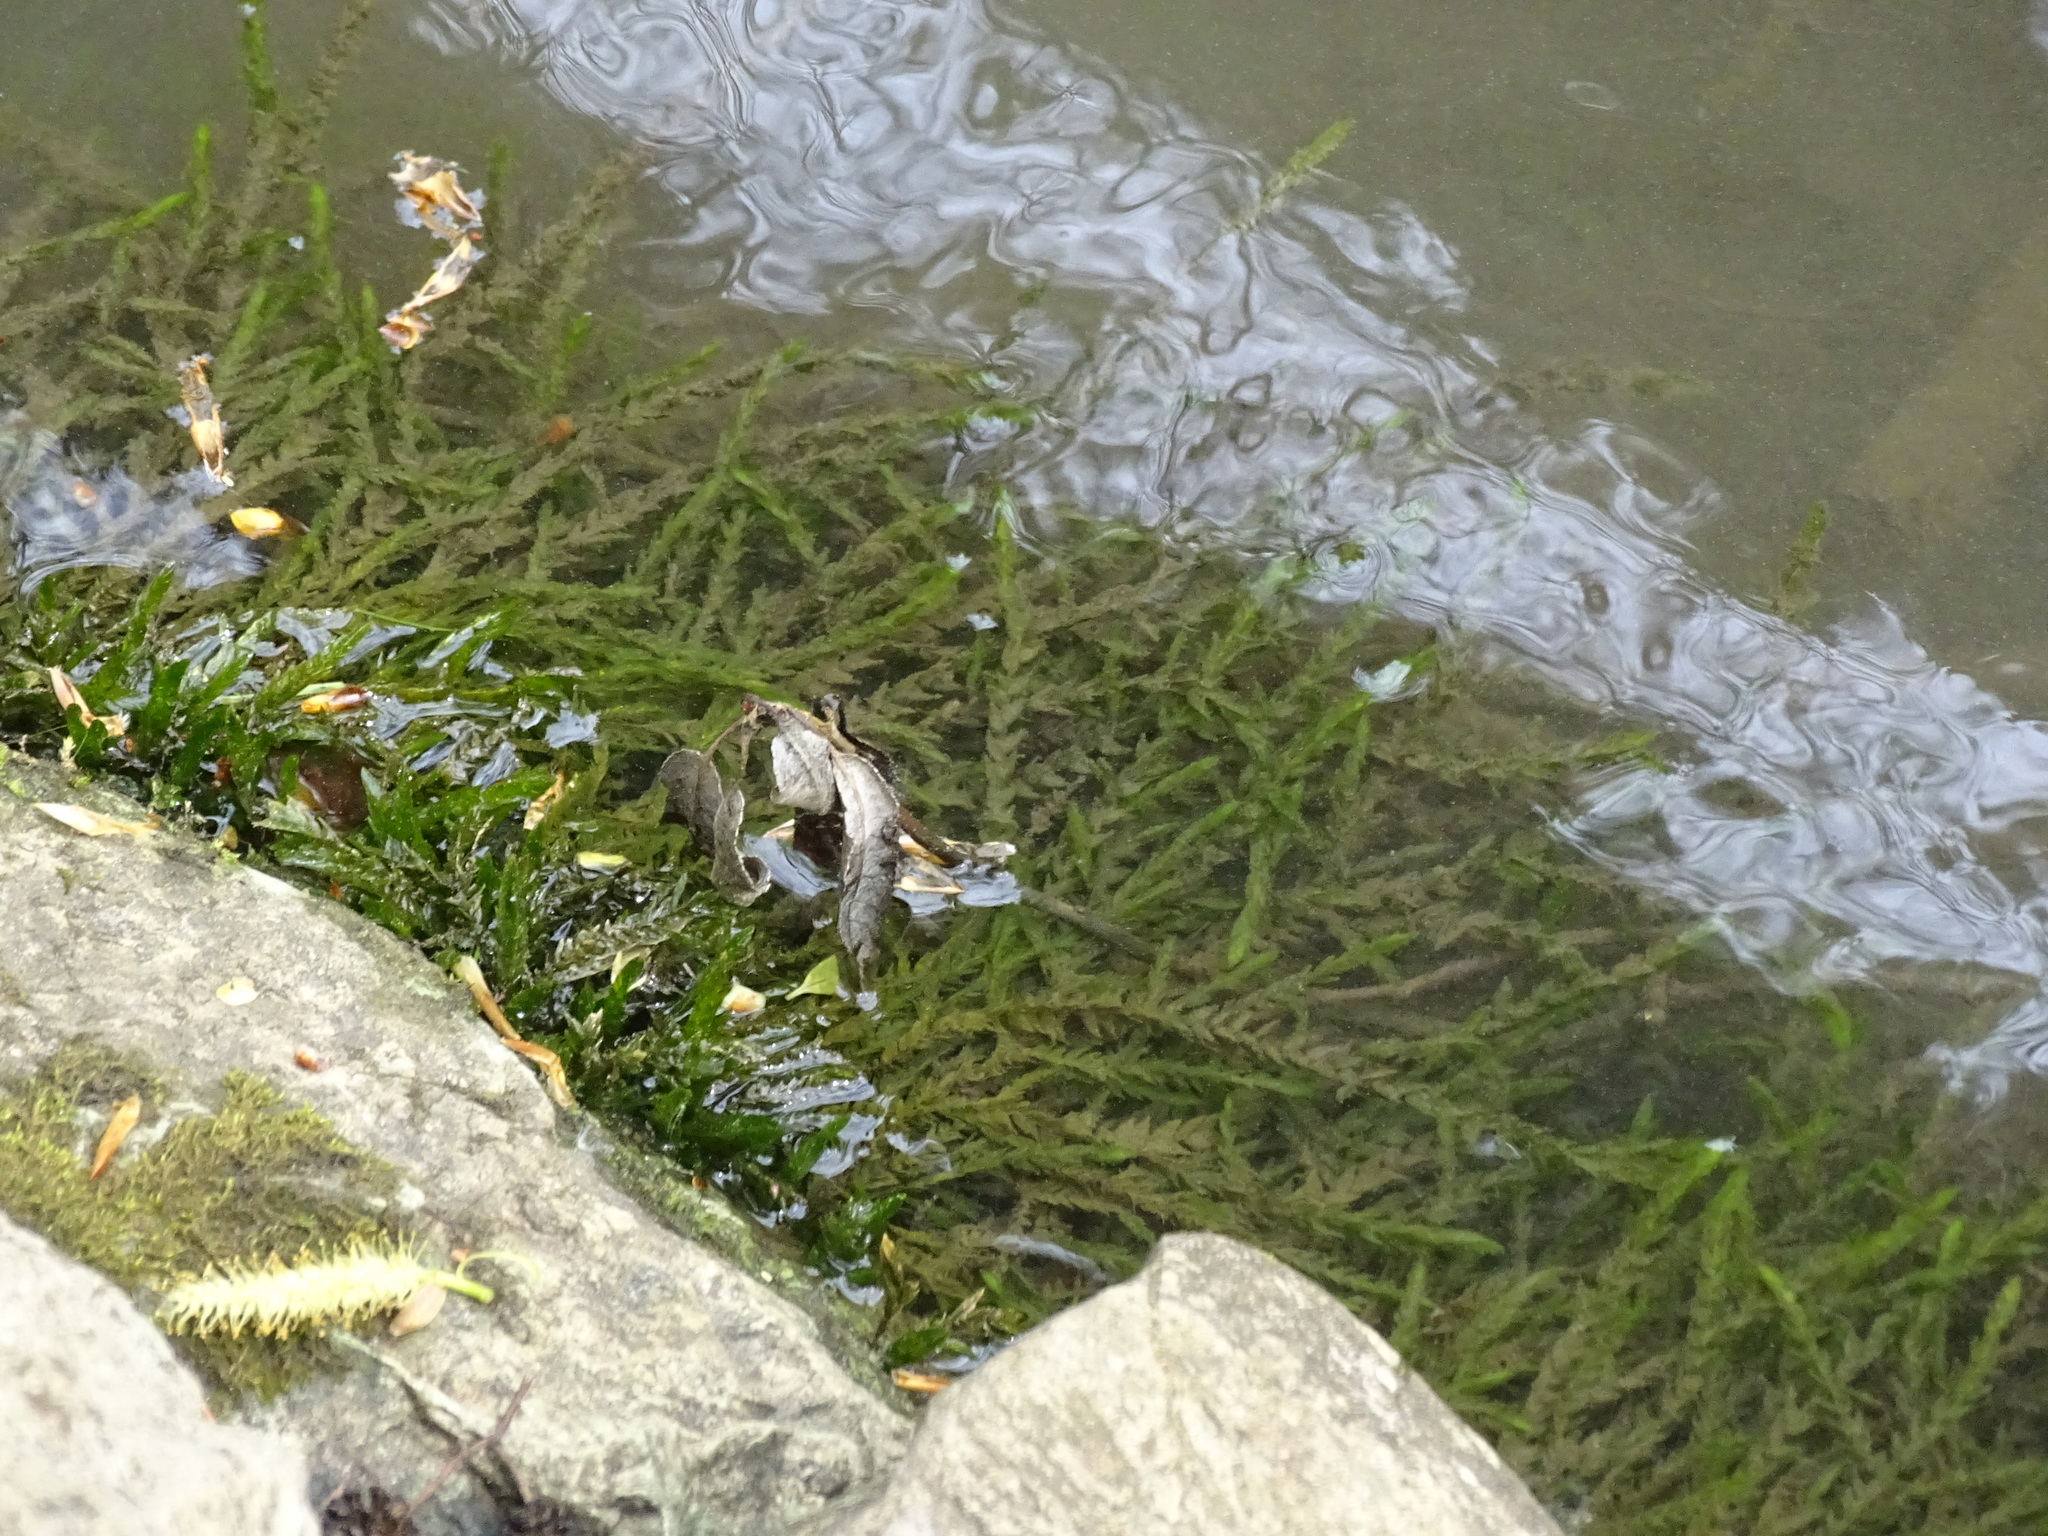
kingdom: Plantae
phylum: Bryophyta
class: Bryopsida
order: Hypnales
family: Fontinalaceae
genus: Fontinalis
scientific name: Fontinalis antipyretica
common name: Greater water-moss
